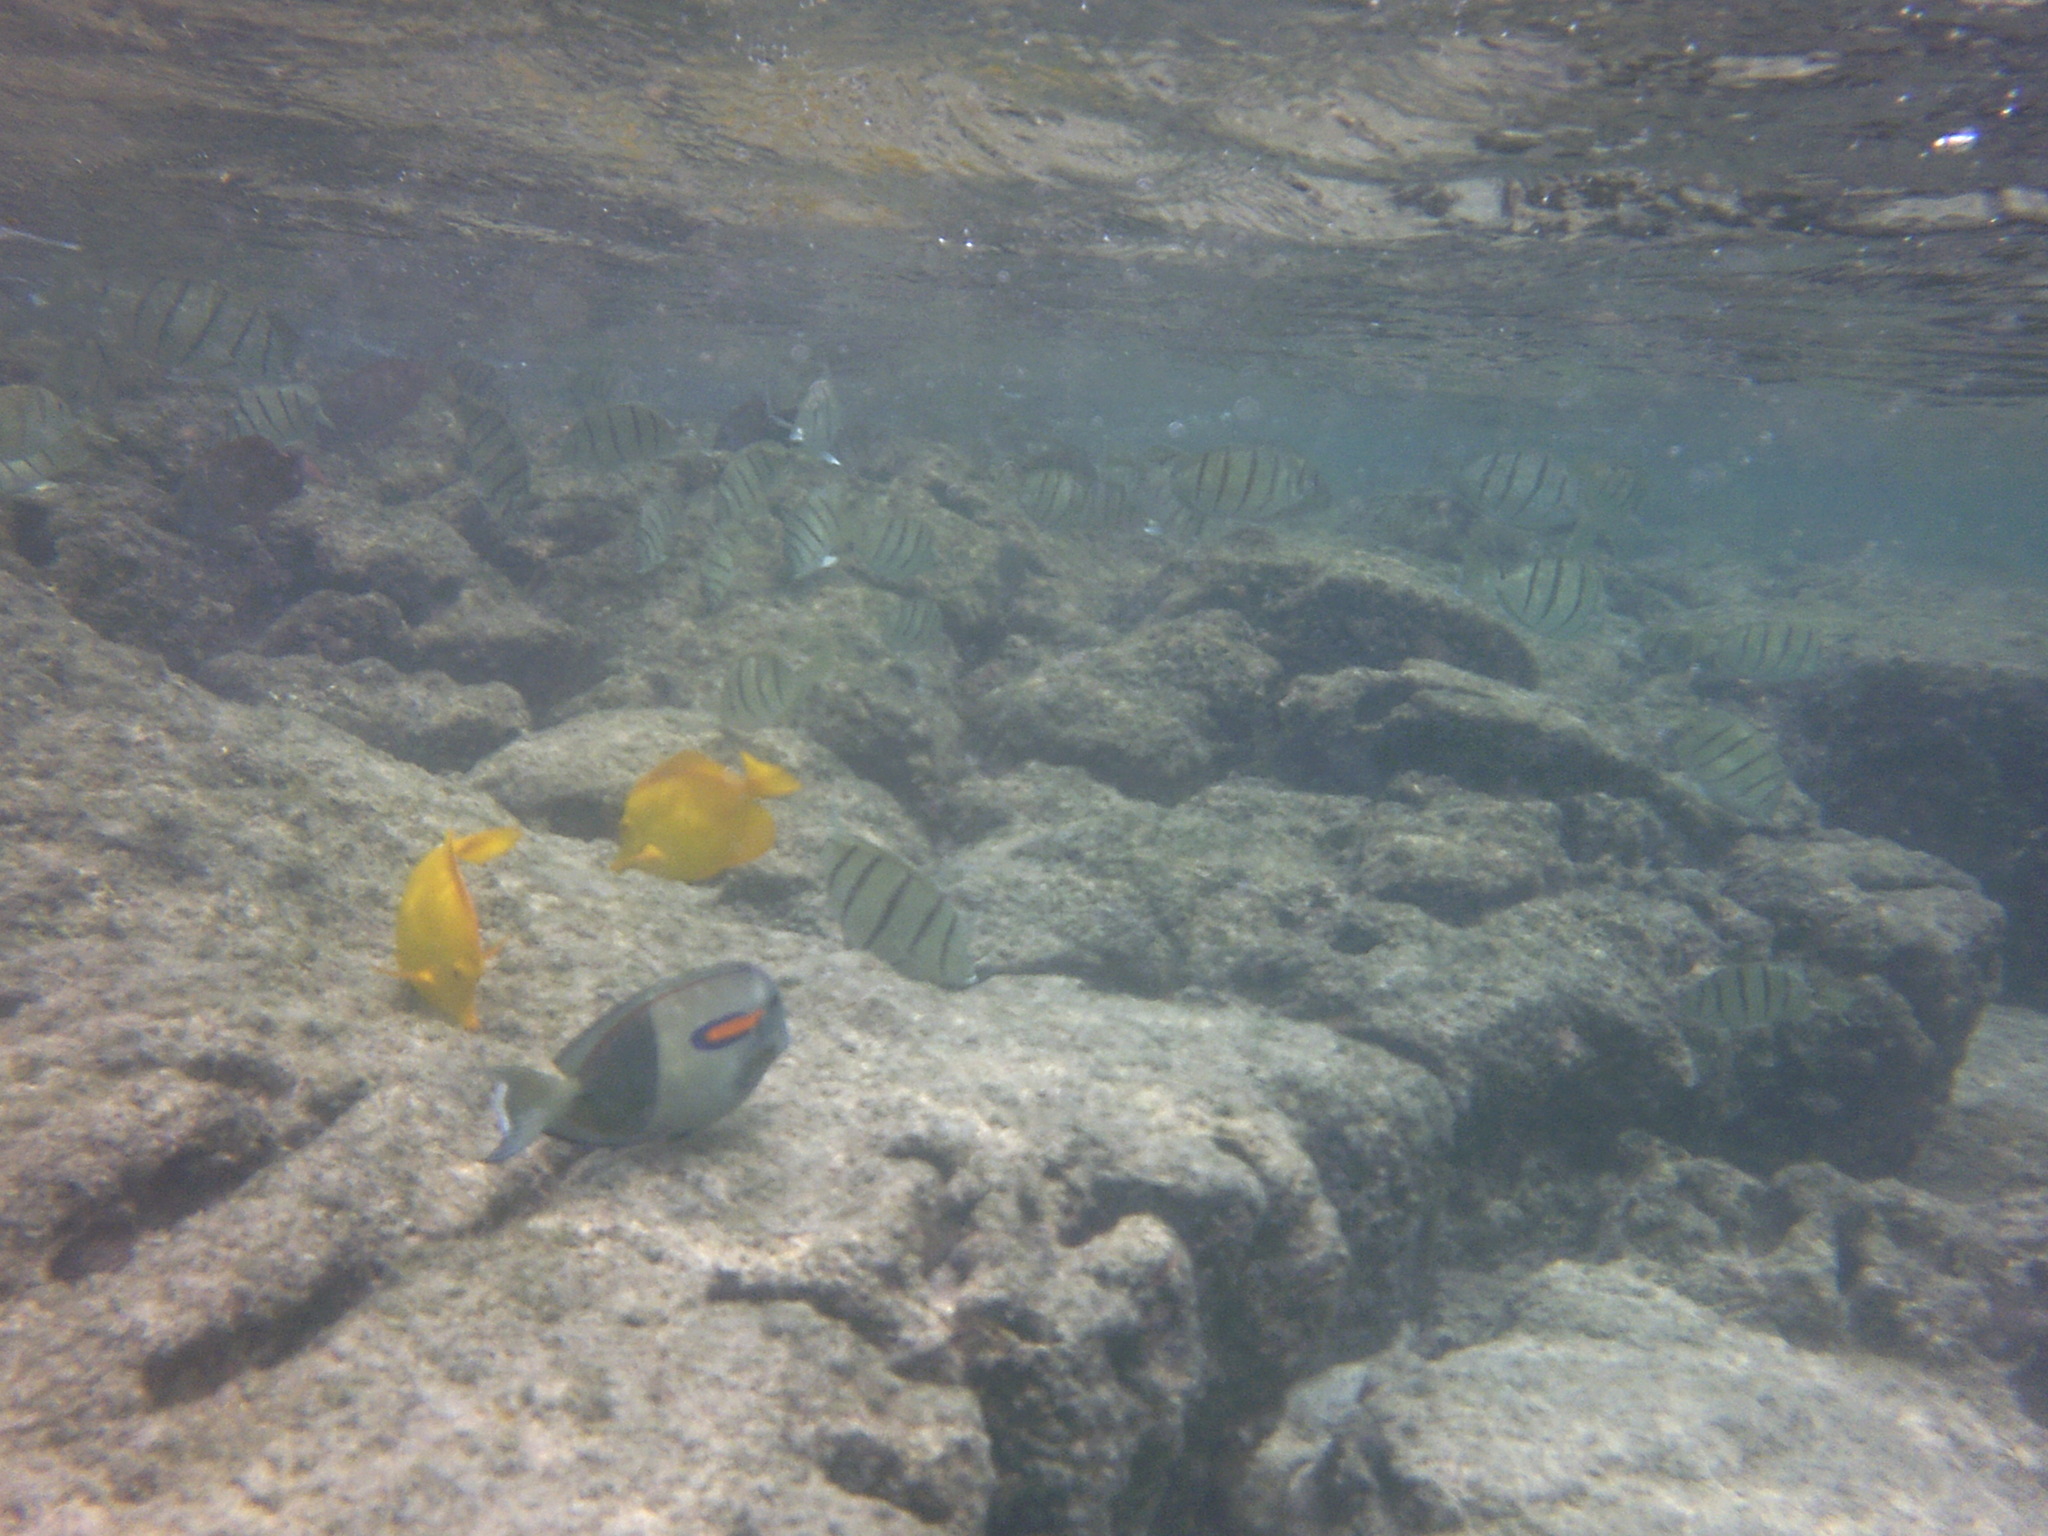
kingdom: Animalia
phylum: Chordata
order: Perciformes
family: Acanthuridae
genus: Acanthurus
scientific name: Acanthurus olivaceus
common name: Gendarme fish
